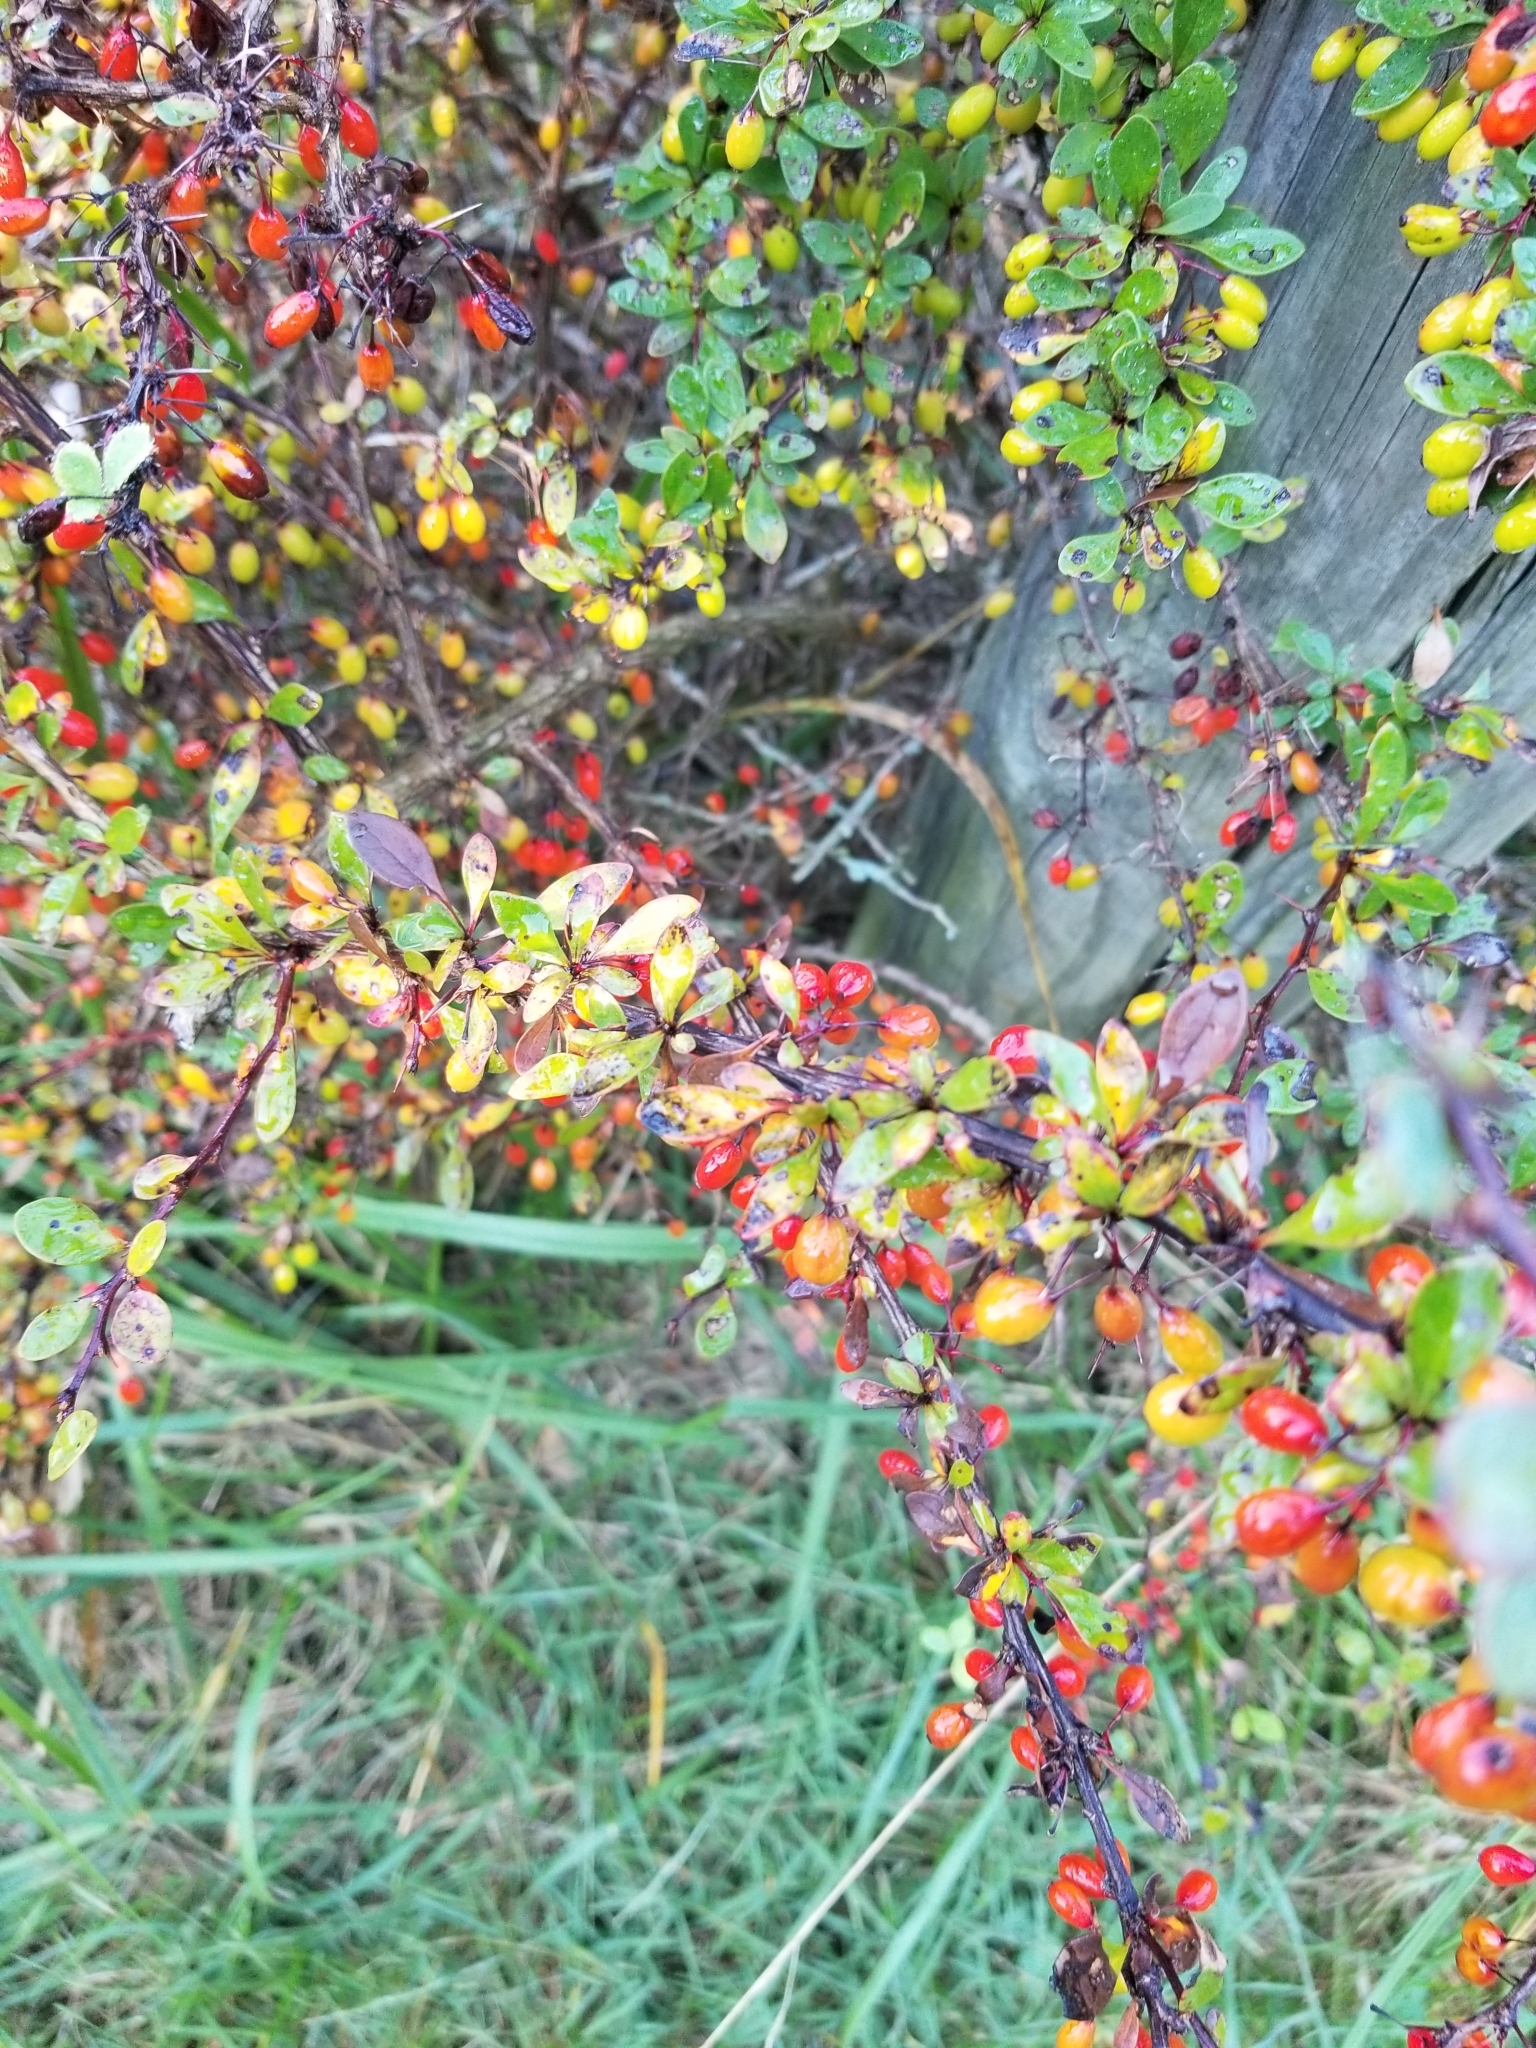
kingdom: Plantae
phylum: Tracheophyta
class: Magnoliopsida
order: Ranunculales
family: Berberidaceae
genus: Berberis
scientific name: Berberis thunbergii
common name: Japanese barberry
